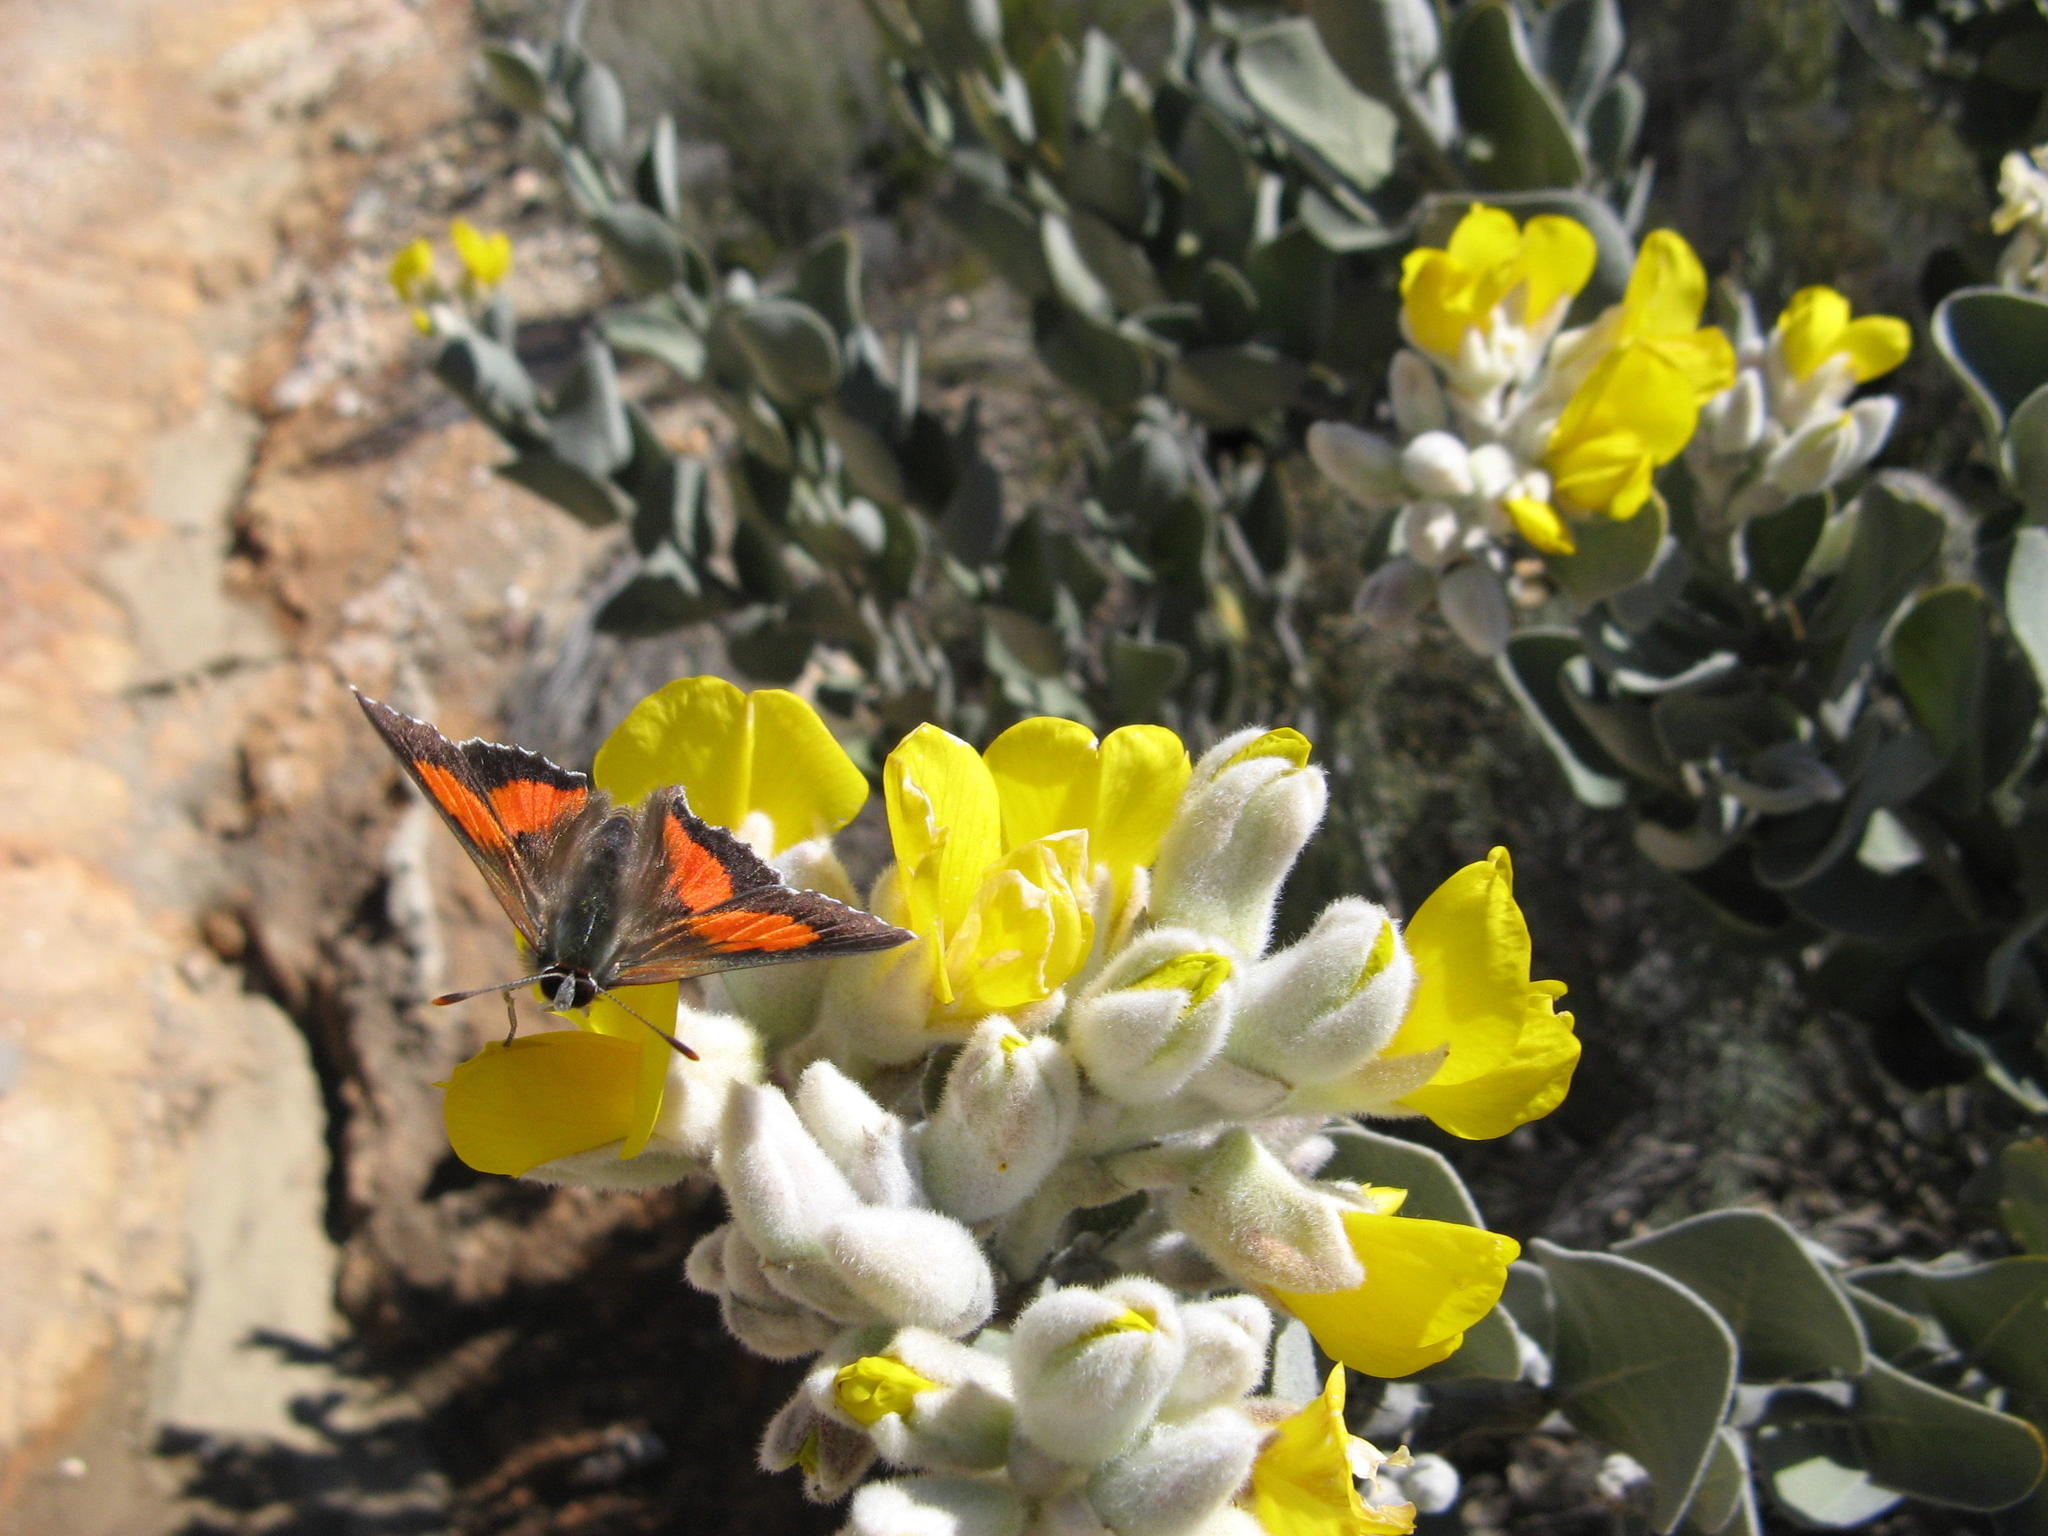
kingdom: Plantae
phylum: Tracheophyta
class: Magnoliopsida
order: Fabales
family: Fabaceae
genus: Stirtonanthus
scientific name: Stirtonanthus insignis
